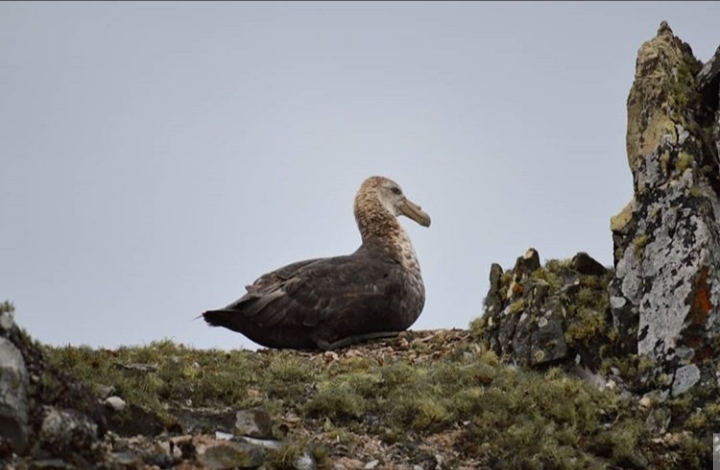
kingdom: Animalia
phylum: Chordata
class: Aves
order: Procellariiformes
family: Procellariidae
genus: Macronectes
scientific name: Macronectes giganteus
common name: Southern giant petrel
